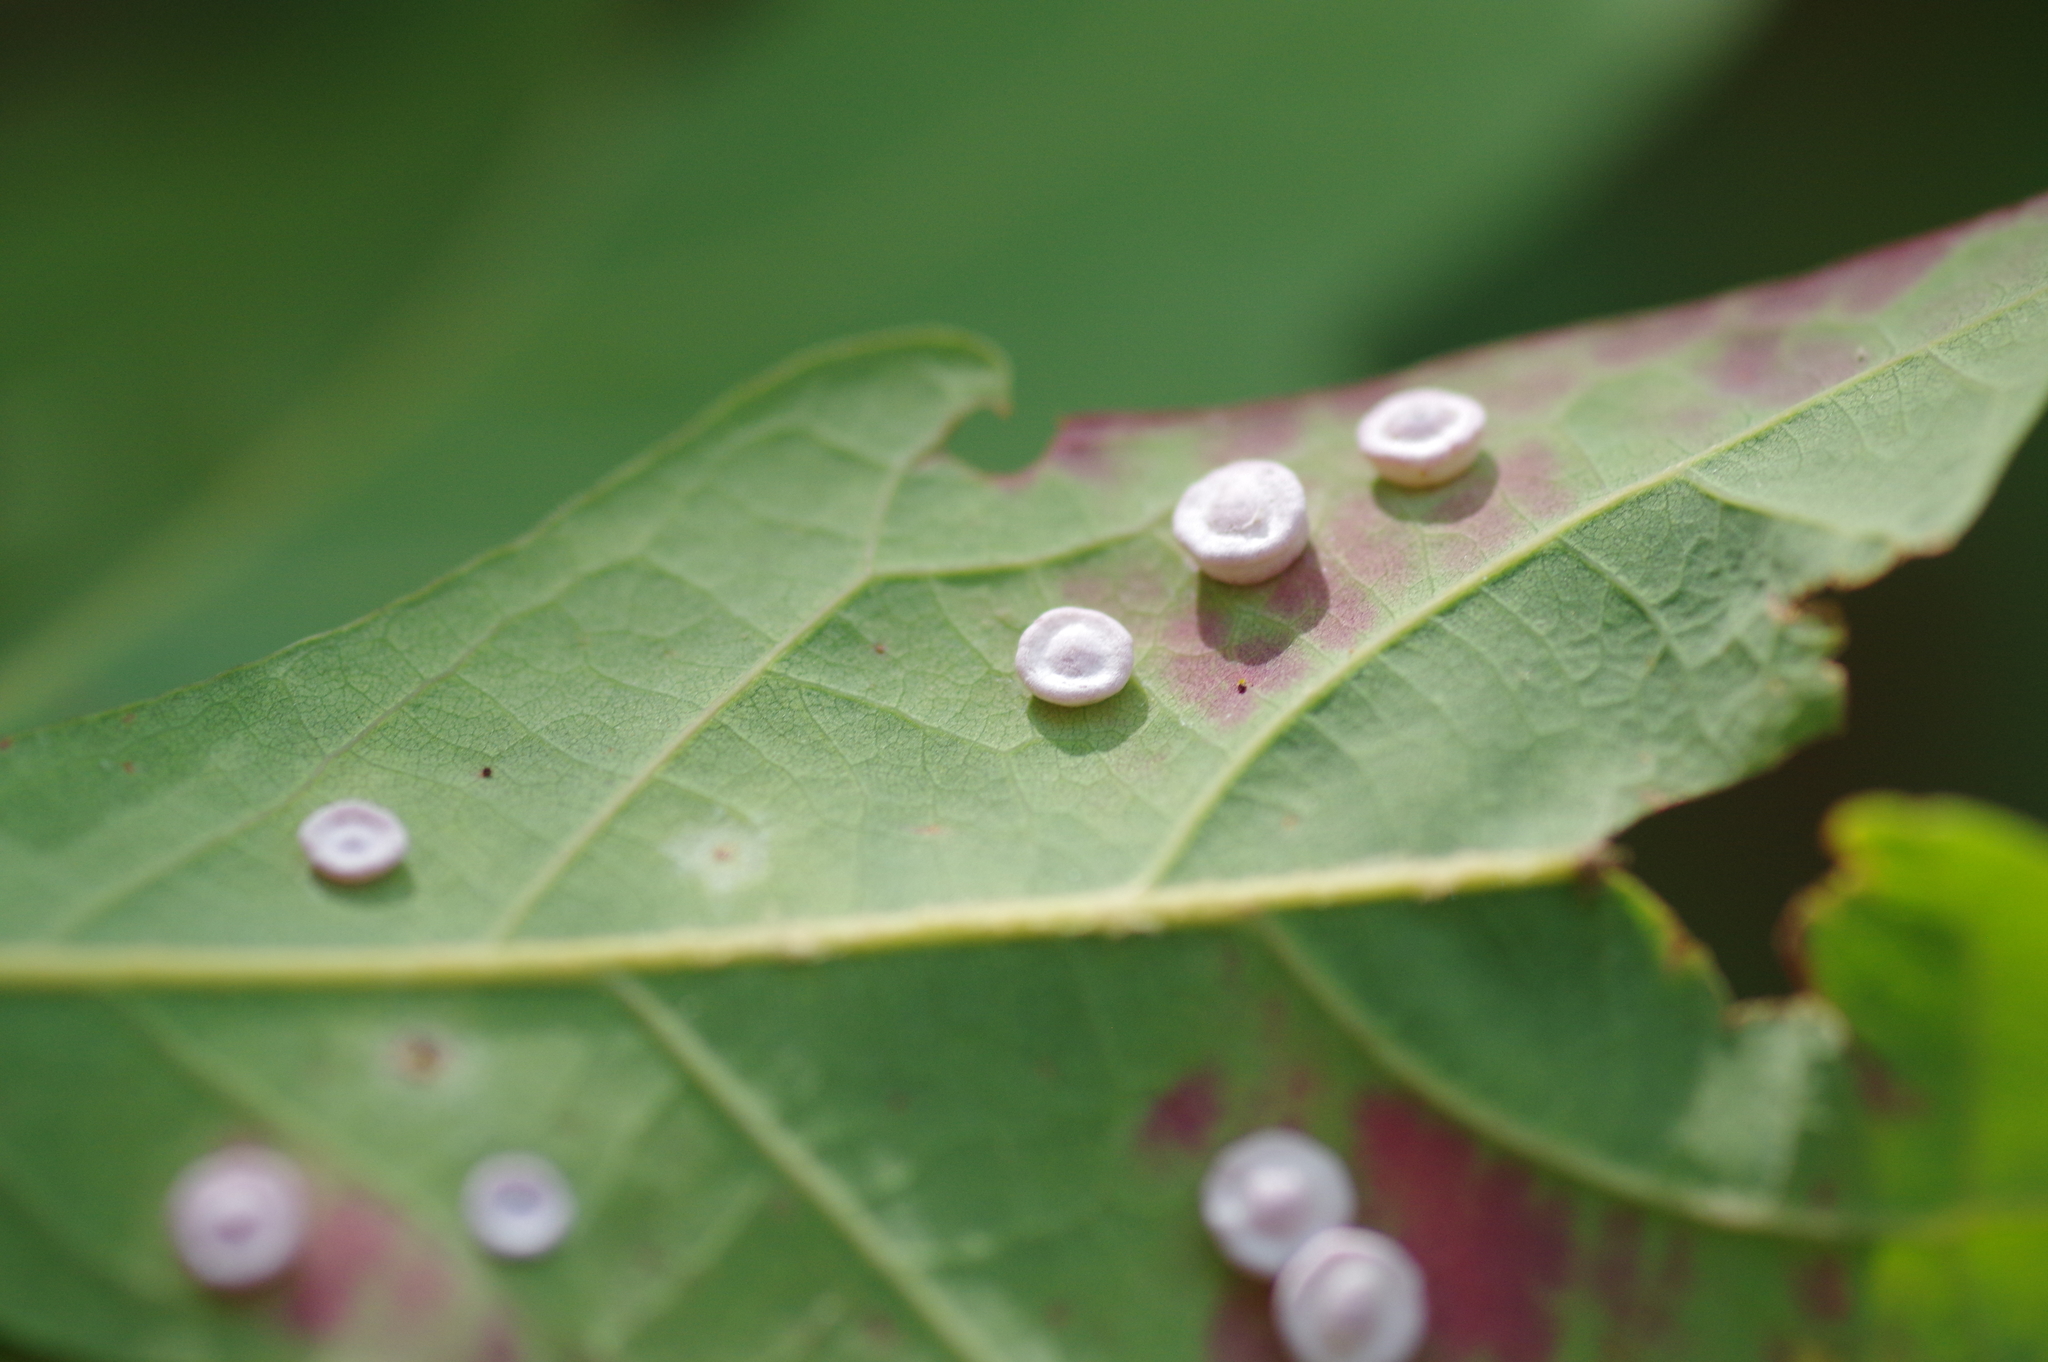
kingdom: Animalia
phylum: Arthropoda
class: Insecta
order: Hymenoptera
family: Cynipidae
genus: Phylloteras
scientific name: Phylloteras poculum
